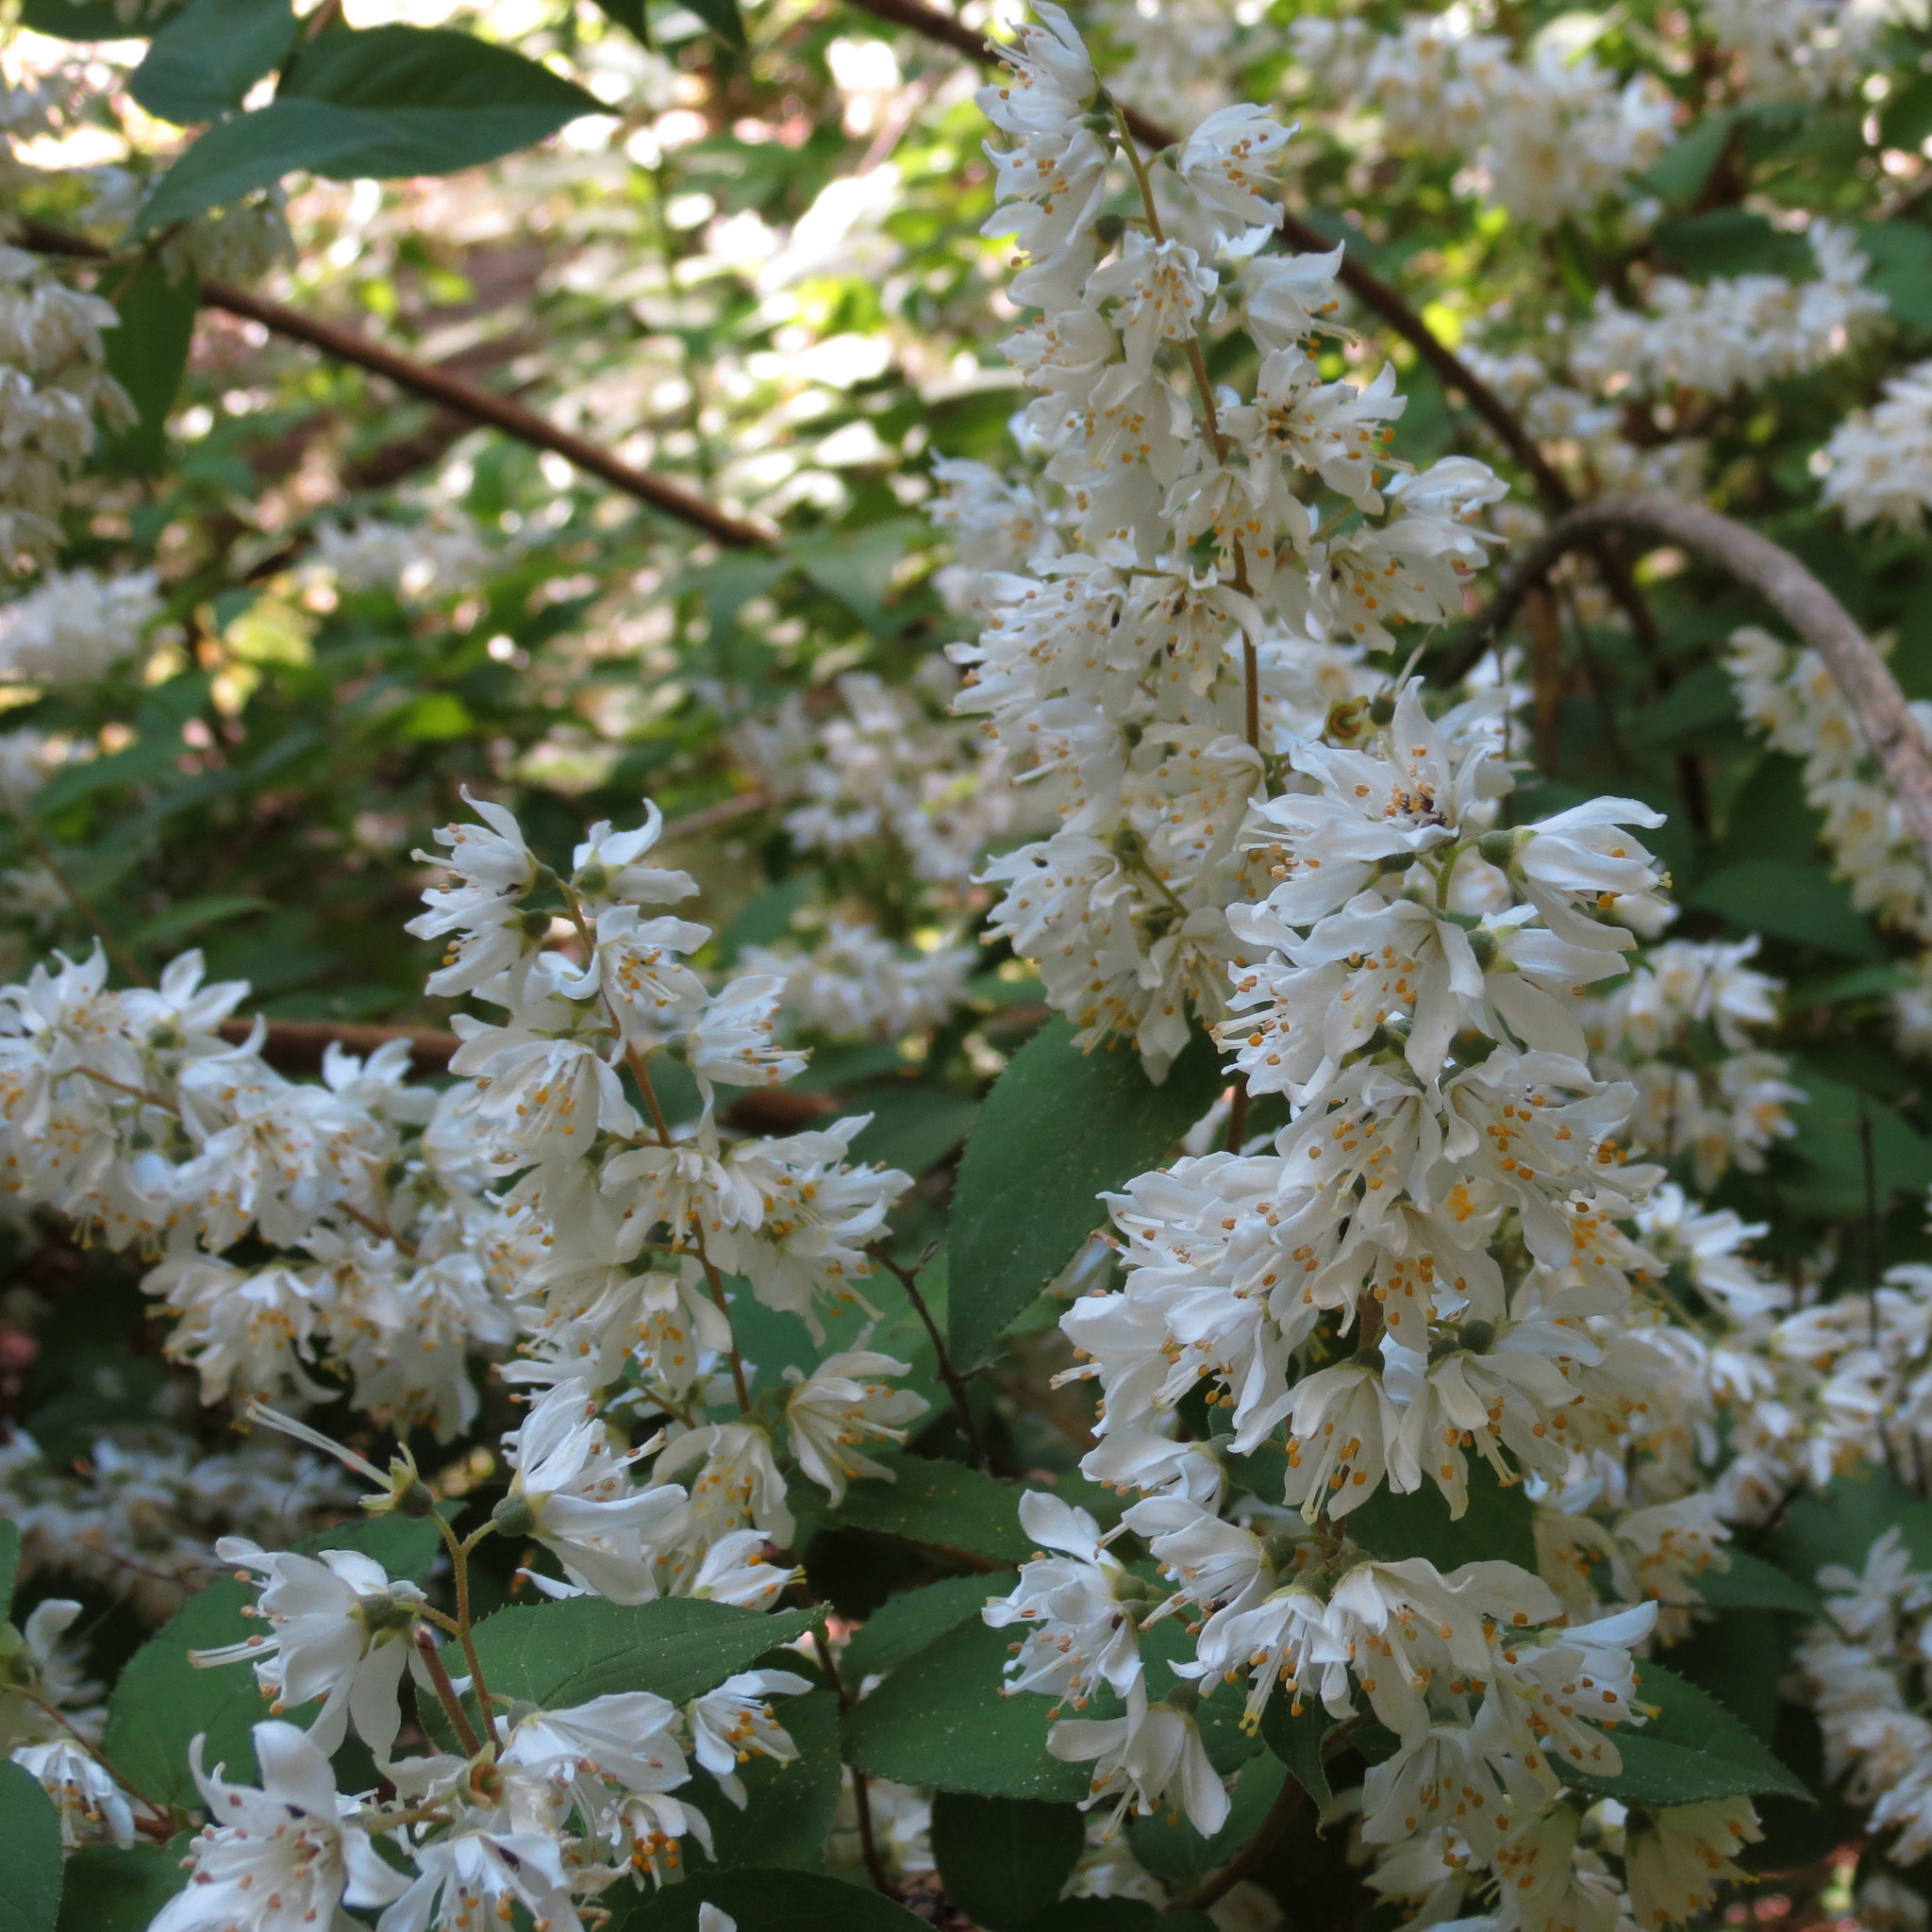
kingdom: Plantae
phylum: Tracheophyta
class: Magnoliopsida
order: Cornales
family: Hydrangeaceae
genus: Deutzia
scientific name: Deutzia crenata
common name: Deutzia
